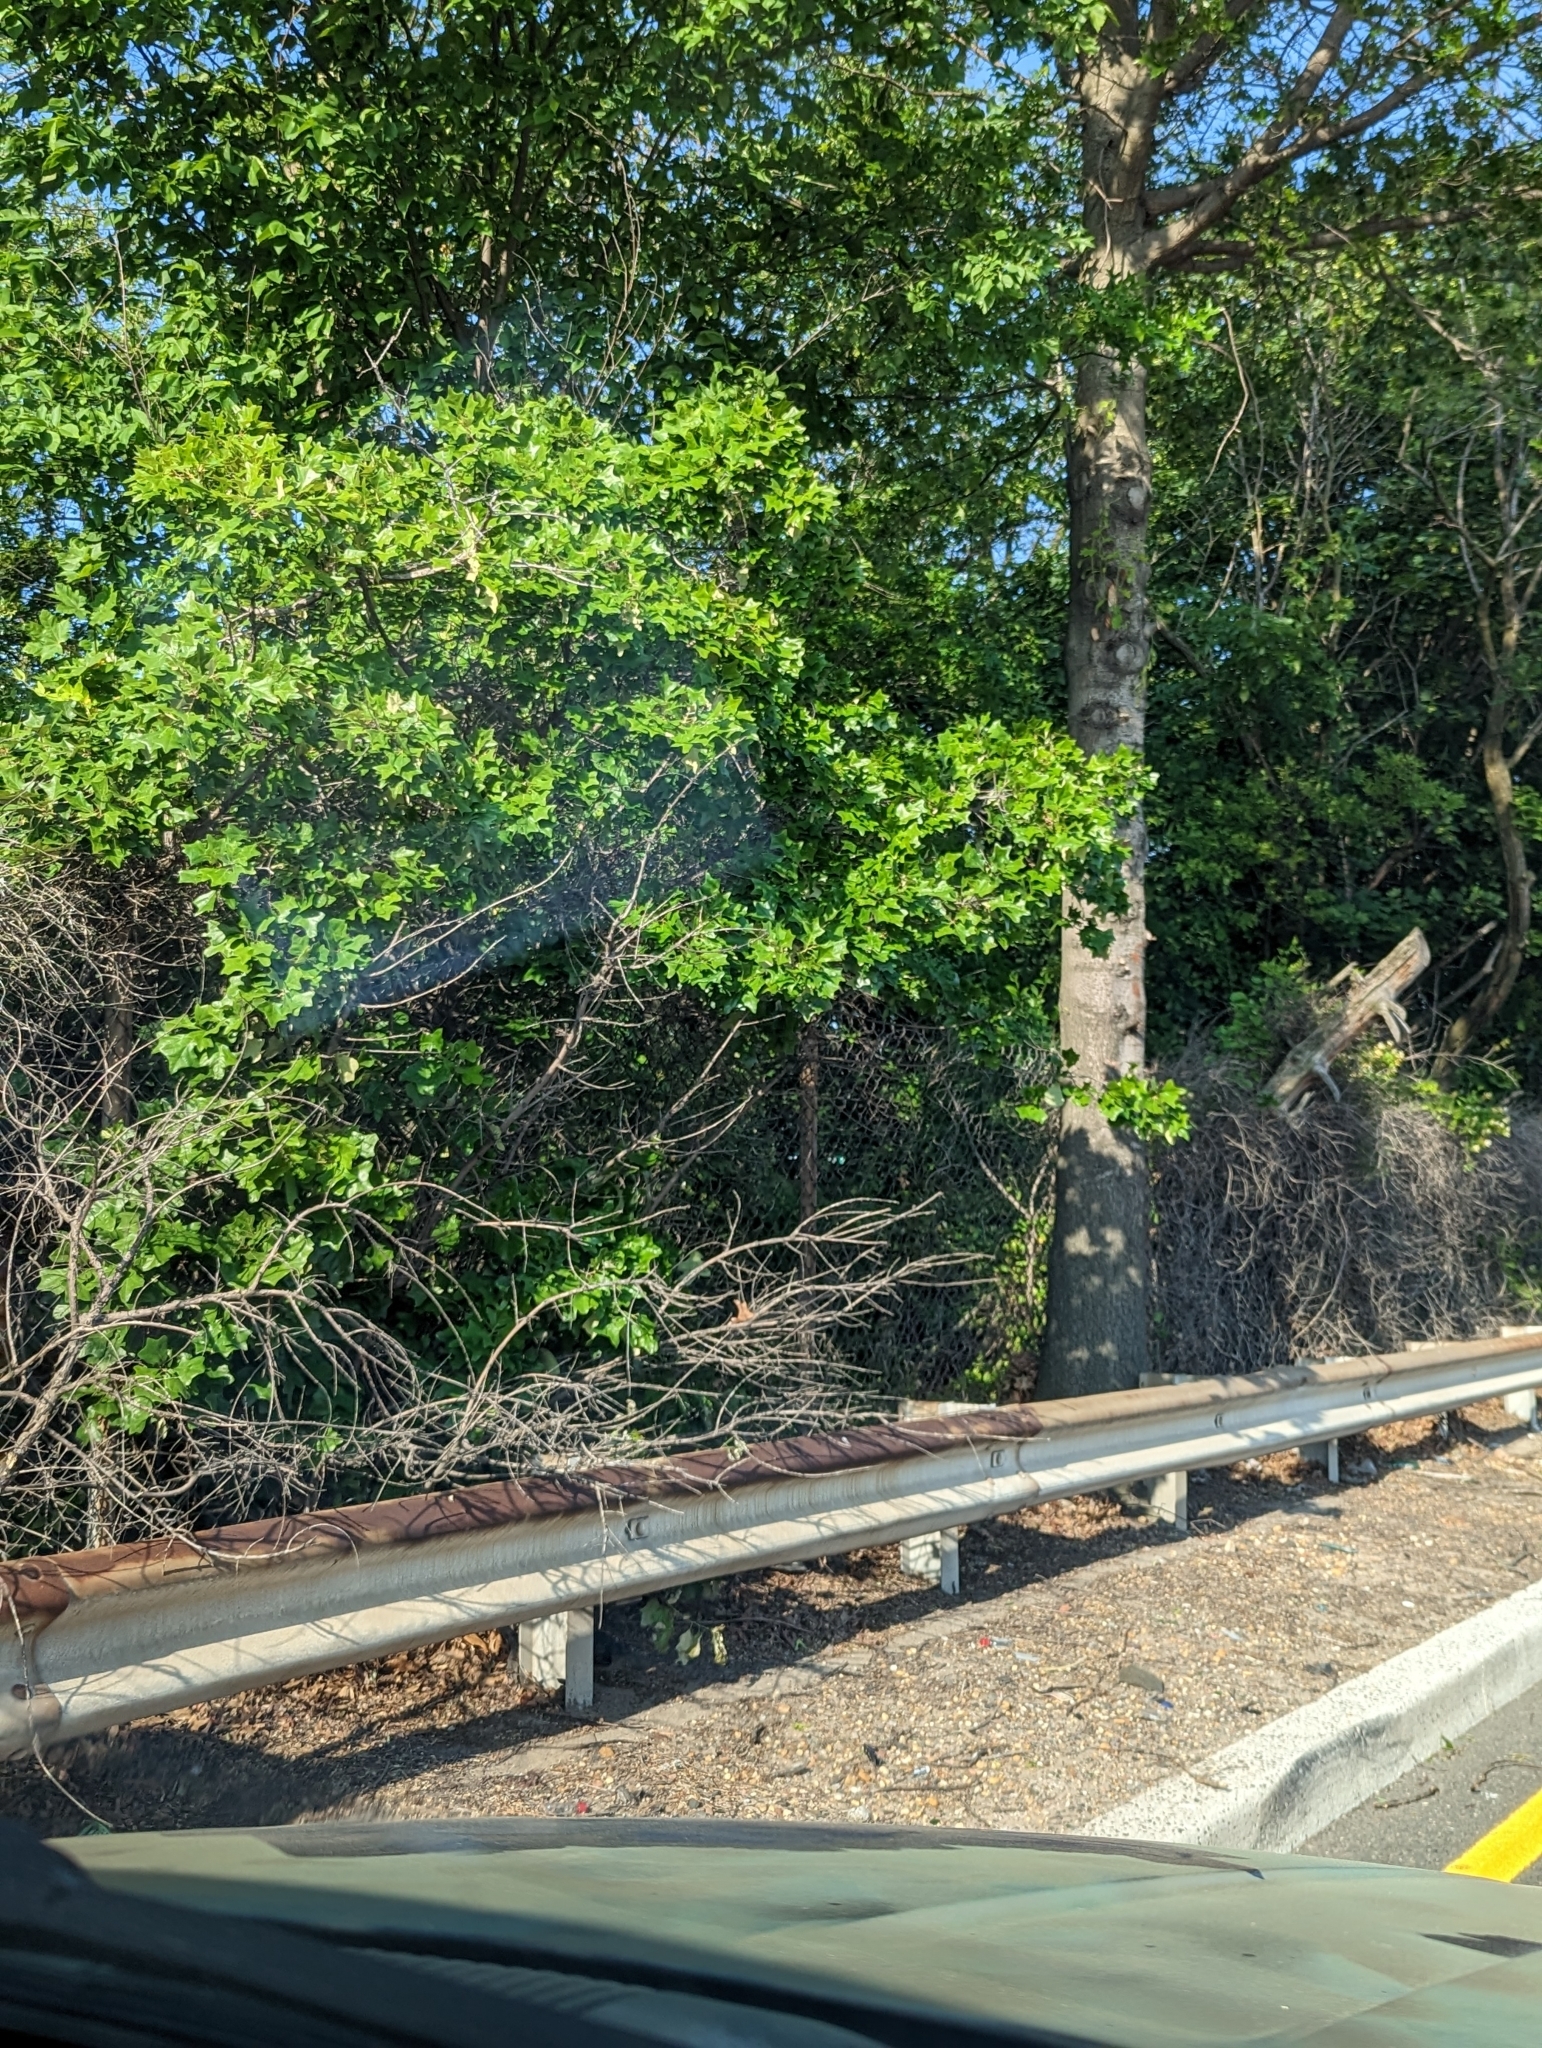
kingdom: Plantae
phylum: Tracheophyta
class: Magnoliopsida
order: Fagales
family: Fagaceae
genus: Quercus
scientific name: Quercus ilicifolia
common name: Bear oak
